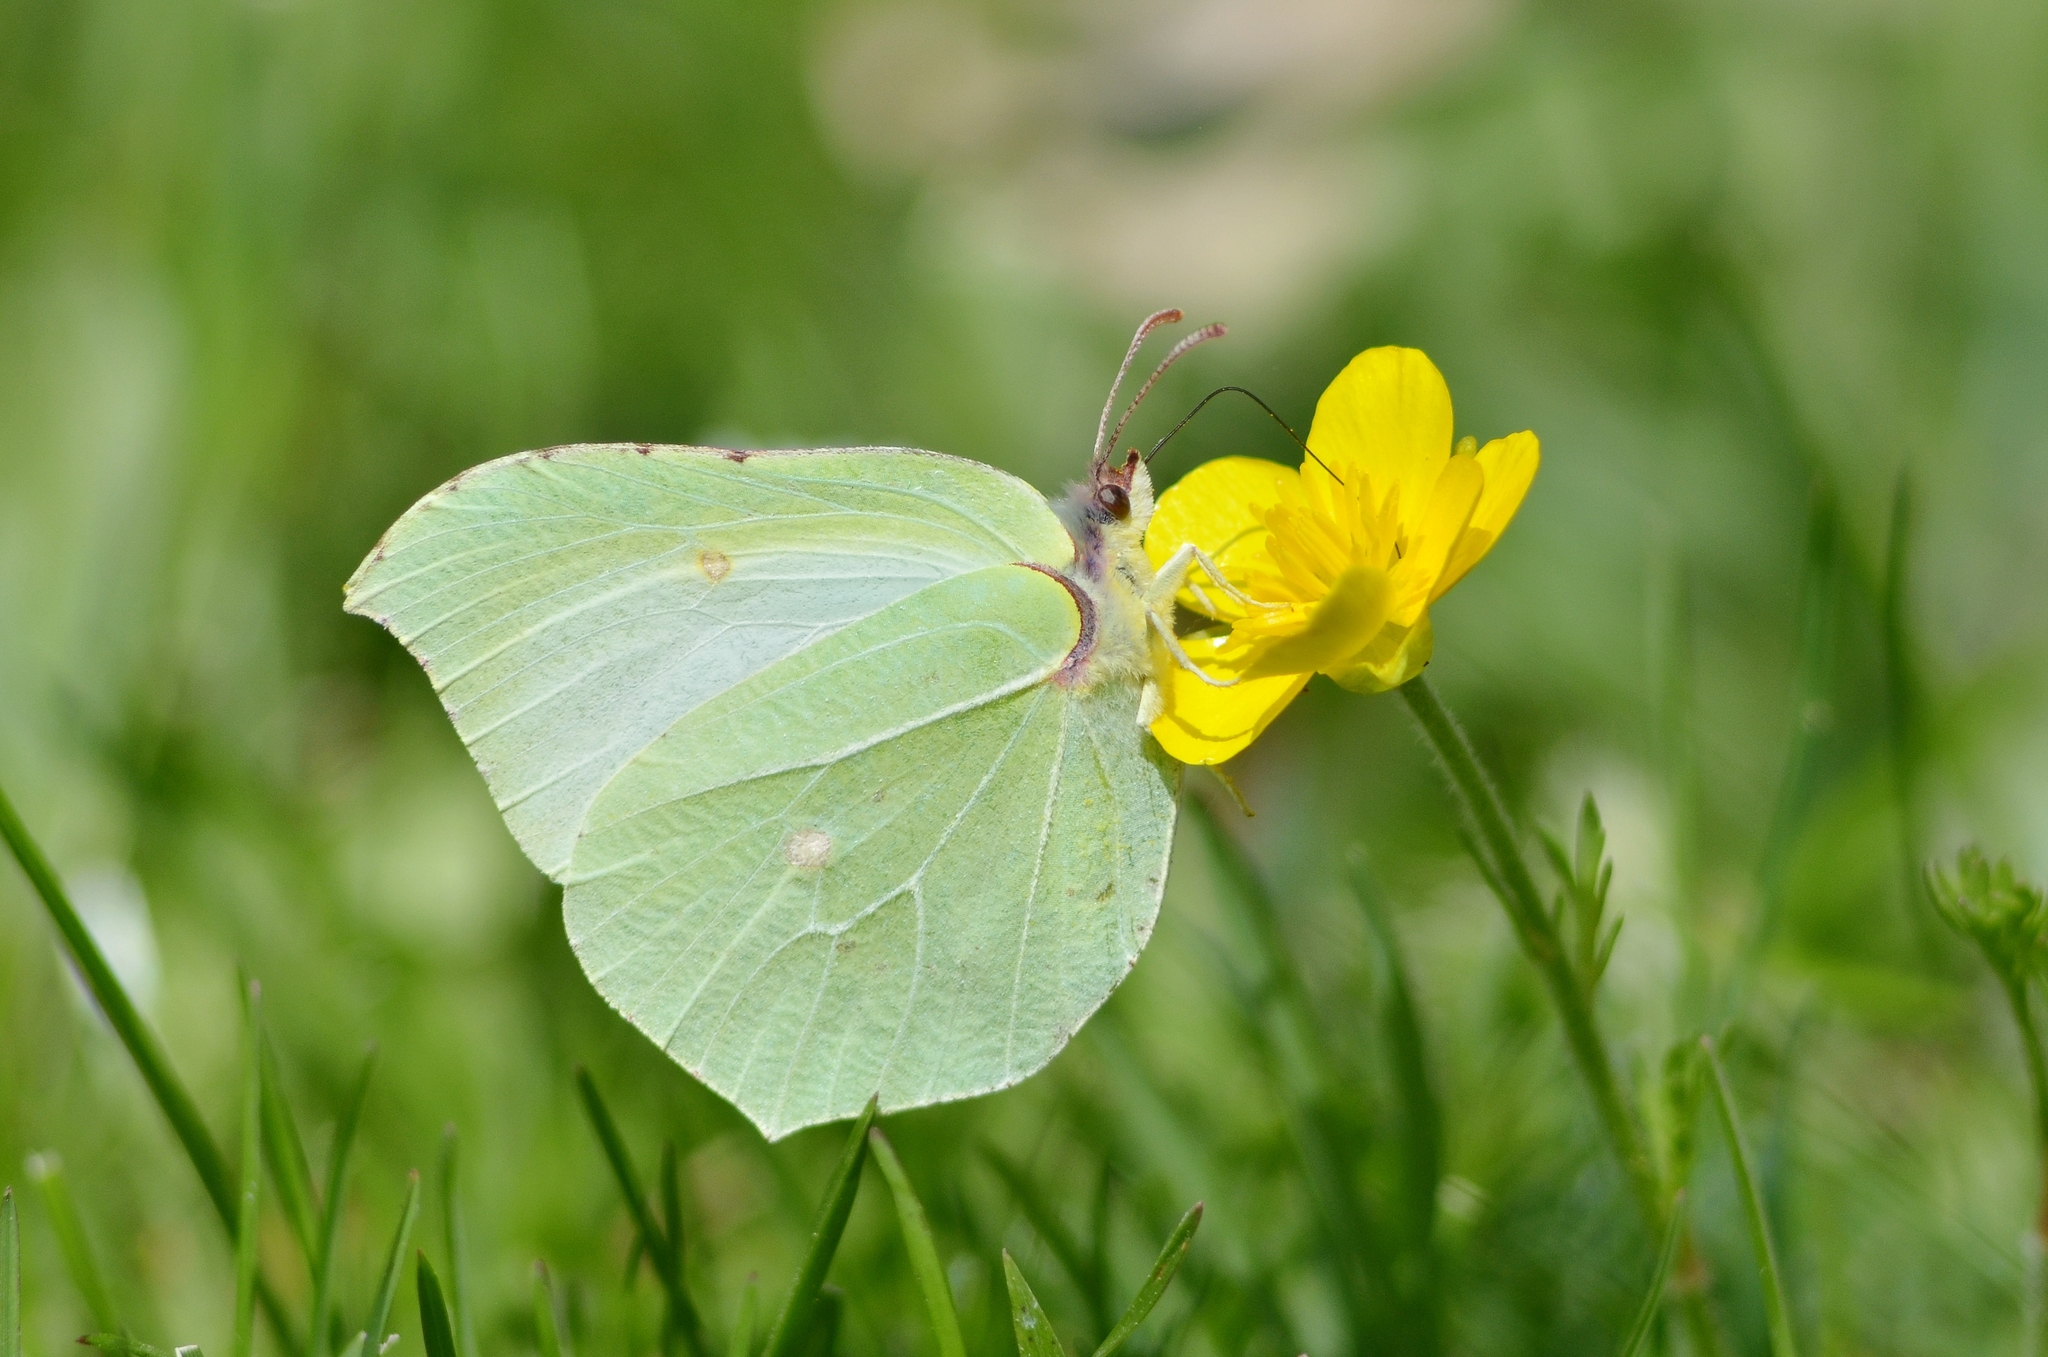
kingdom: Animalia
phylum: Arthropoda
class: Insecta
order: Lepidoptera
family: Pieridae
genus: Gonepteryx
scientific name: Gonepteryx cleopatra
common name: Cleopatra
